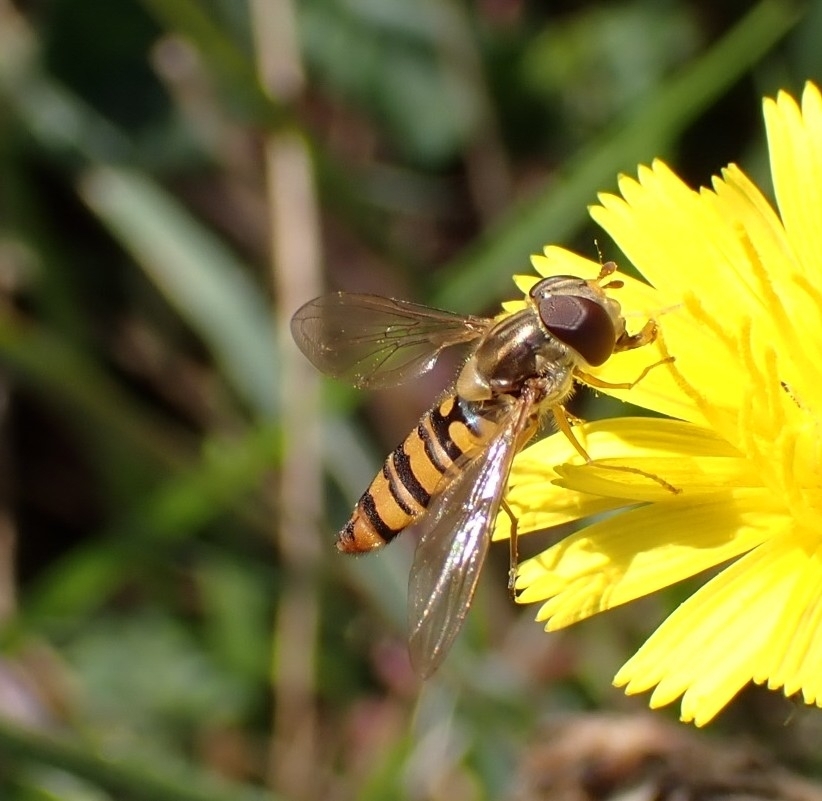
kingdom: Animalia
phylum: Arthropoda
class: Insecta
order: Diptera
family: Syrphidae
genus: Episyrphus
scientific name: Episyrphus balteatus
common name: Marmalade hoverfly
